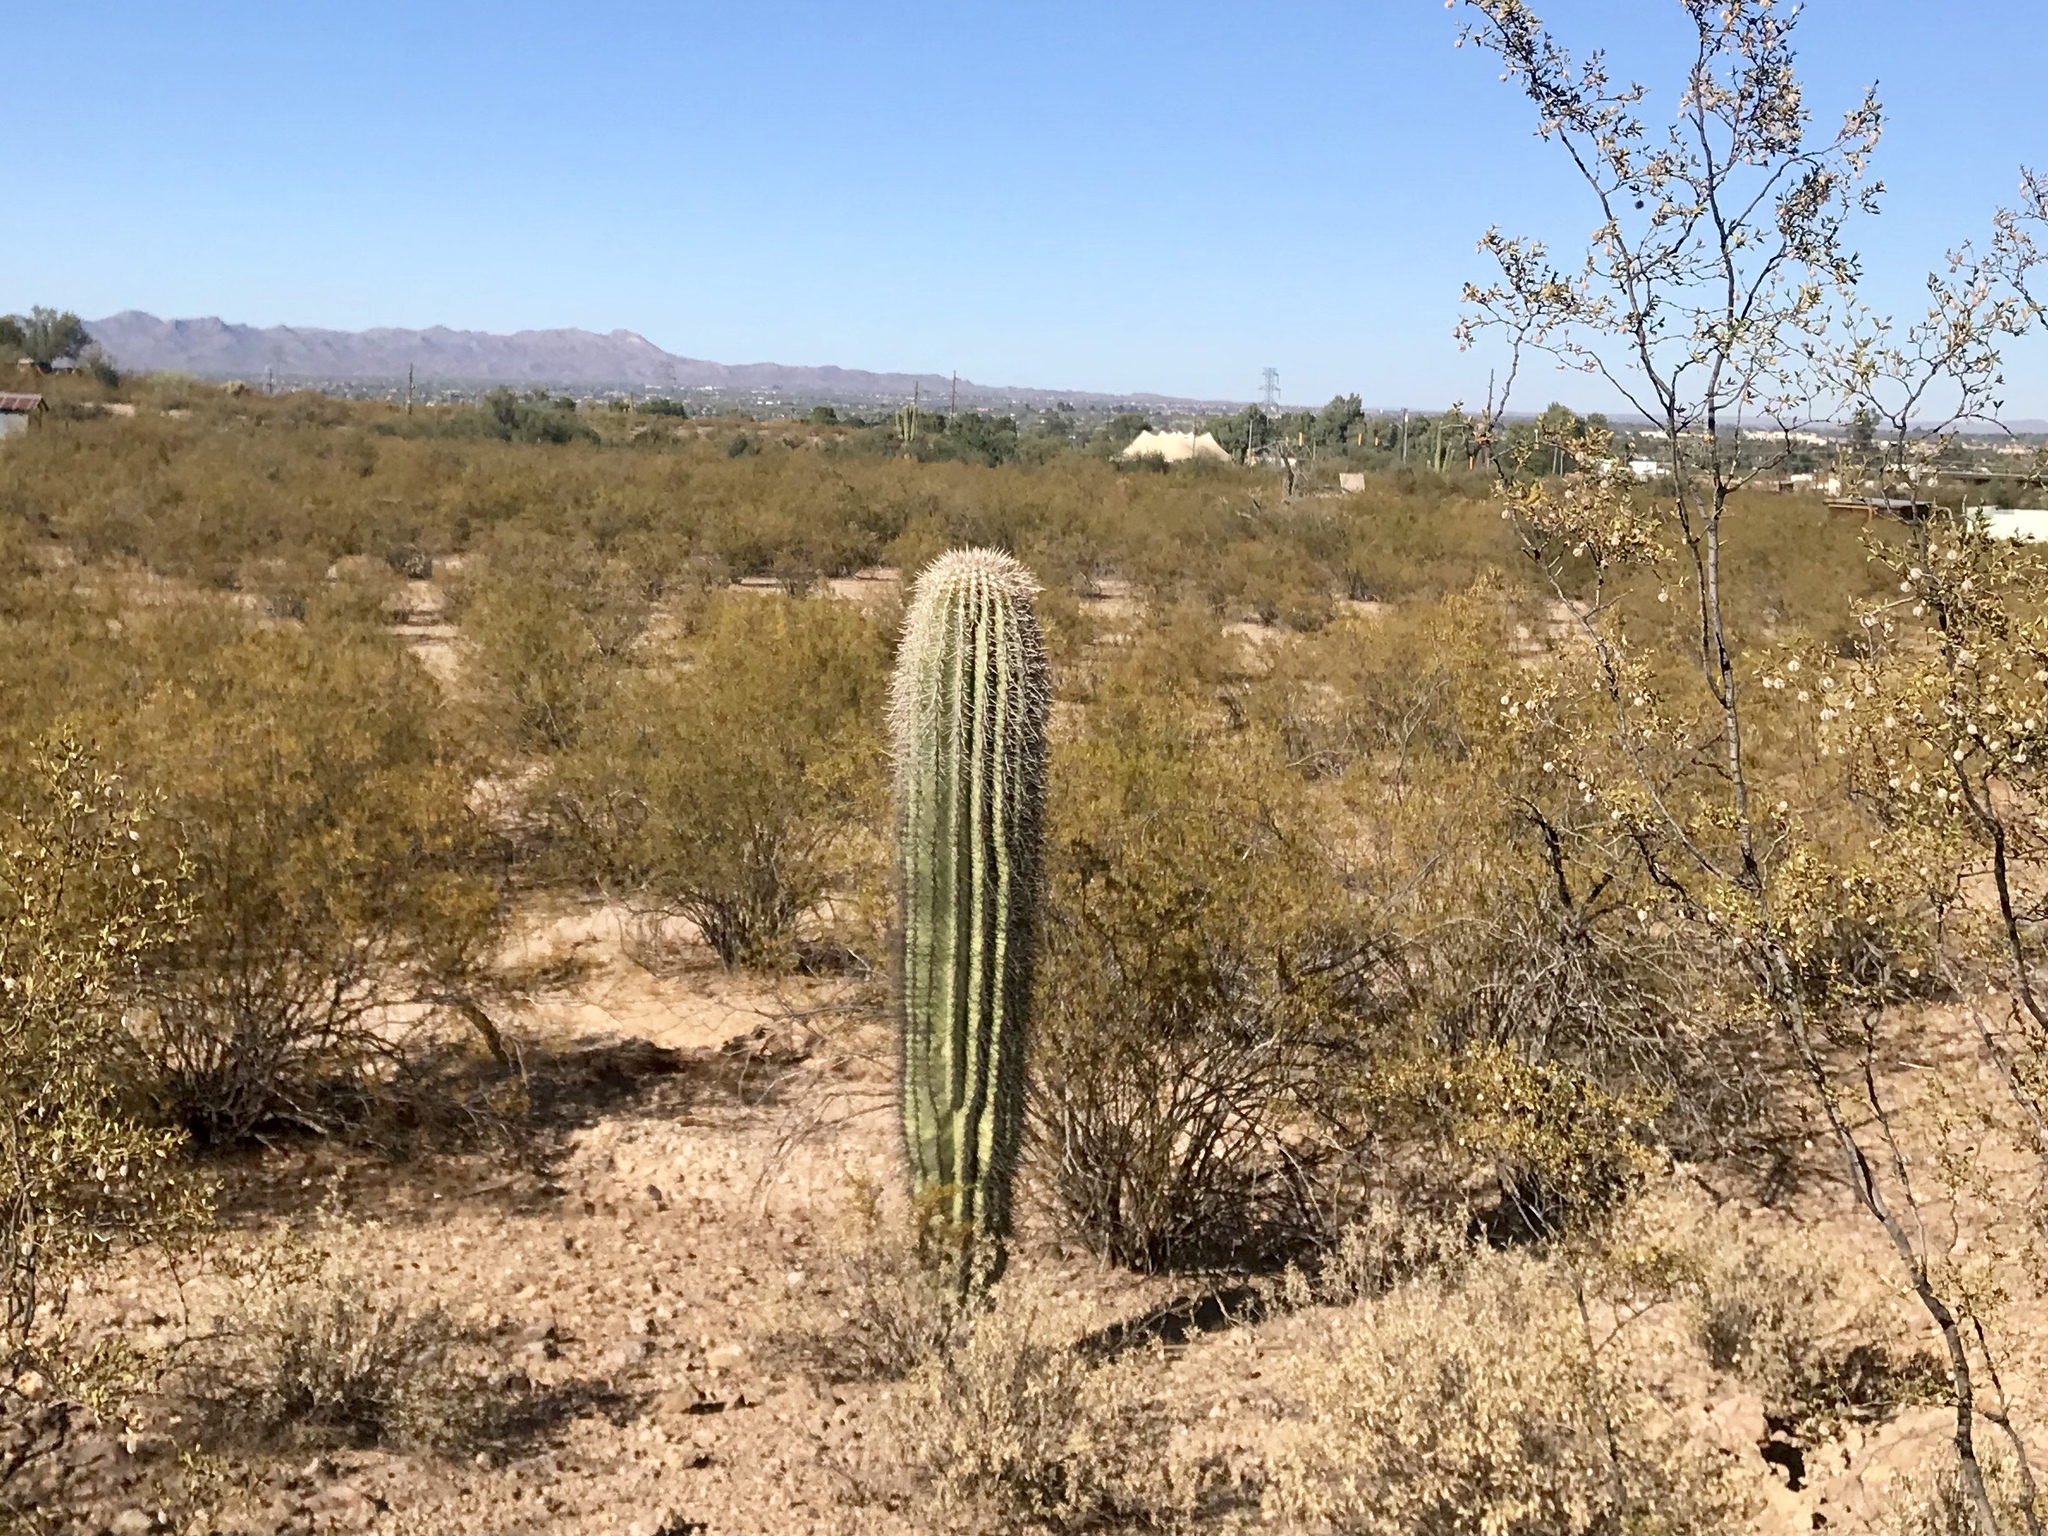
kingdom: Plantae
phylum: Tracheophyta
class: Magnoliopsida
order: Caryophyllales
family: Cactaceae
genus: Carnegiea
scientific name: Carnegiea gigantea
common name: Saguaro
